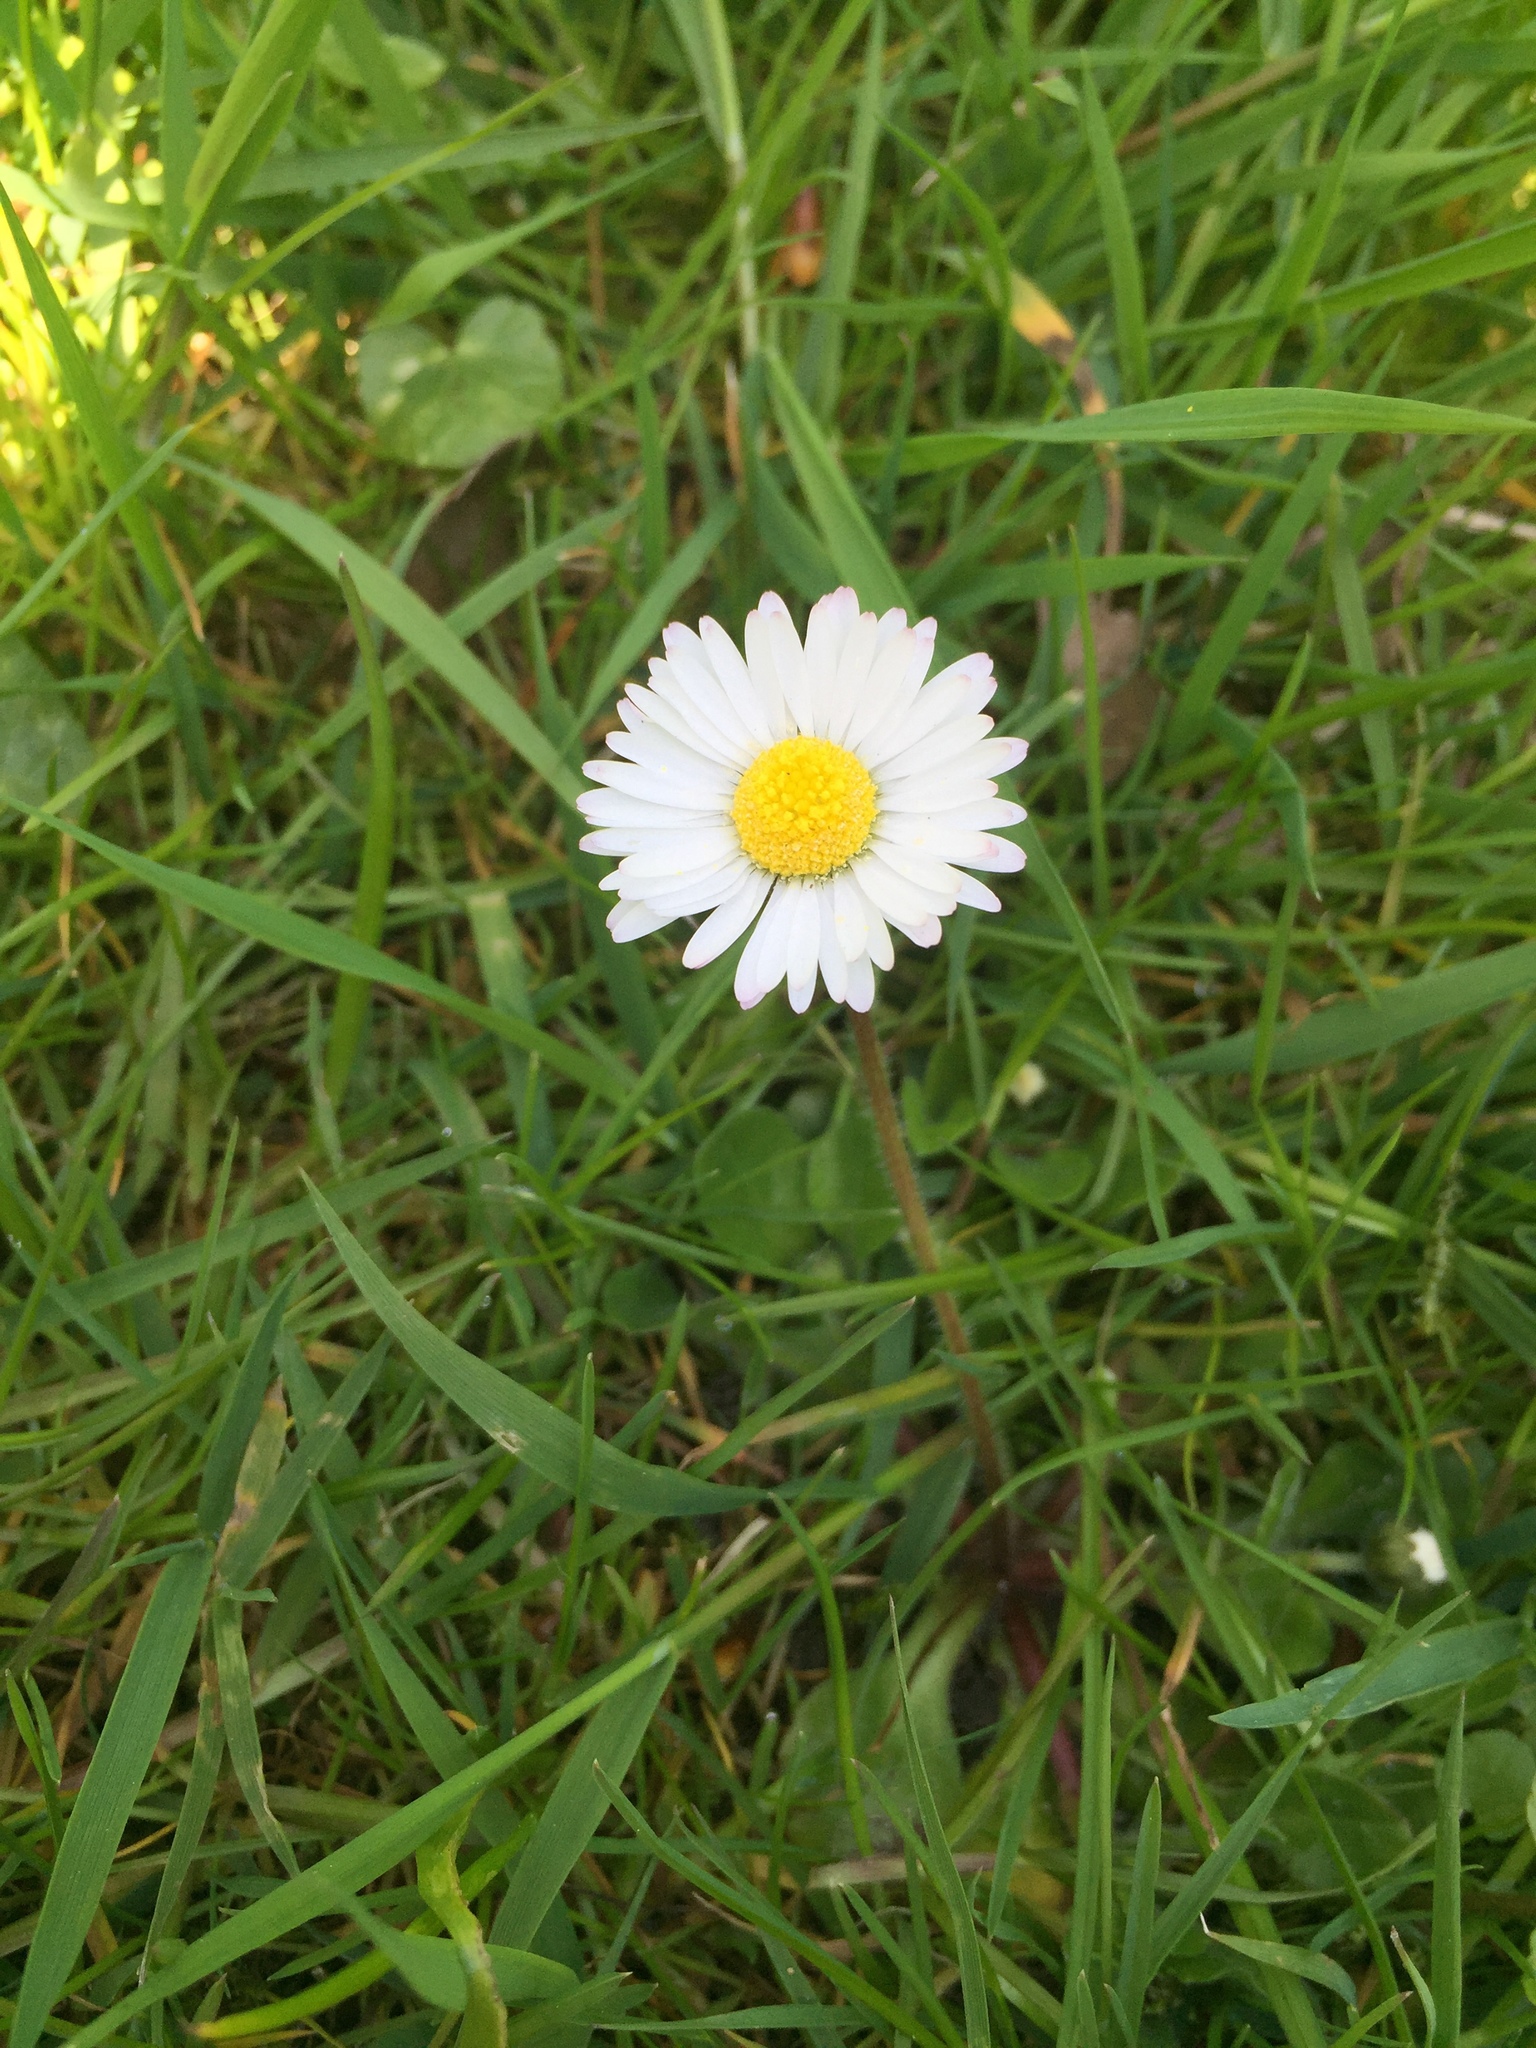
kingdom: Plantae
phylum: Tracheophyta
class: Magnoliopsida
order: Asterales
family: Asteraceae
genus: Bellis
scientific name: Bellis perennis
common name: Lawndaisy
